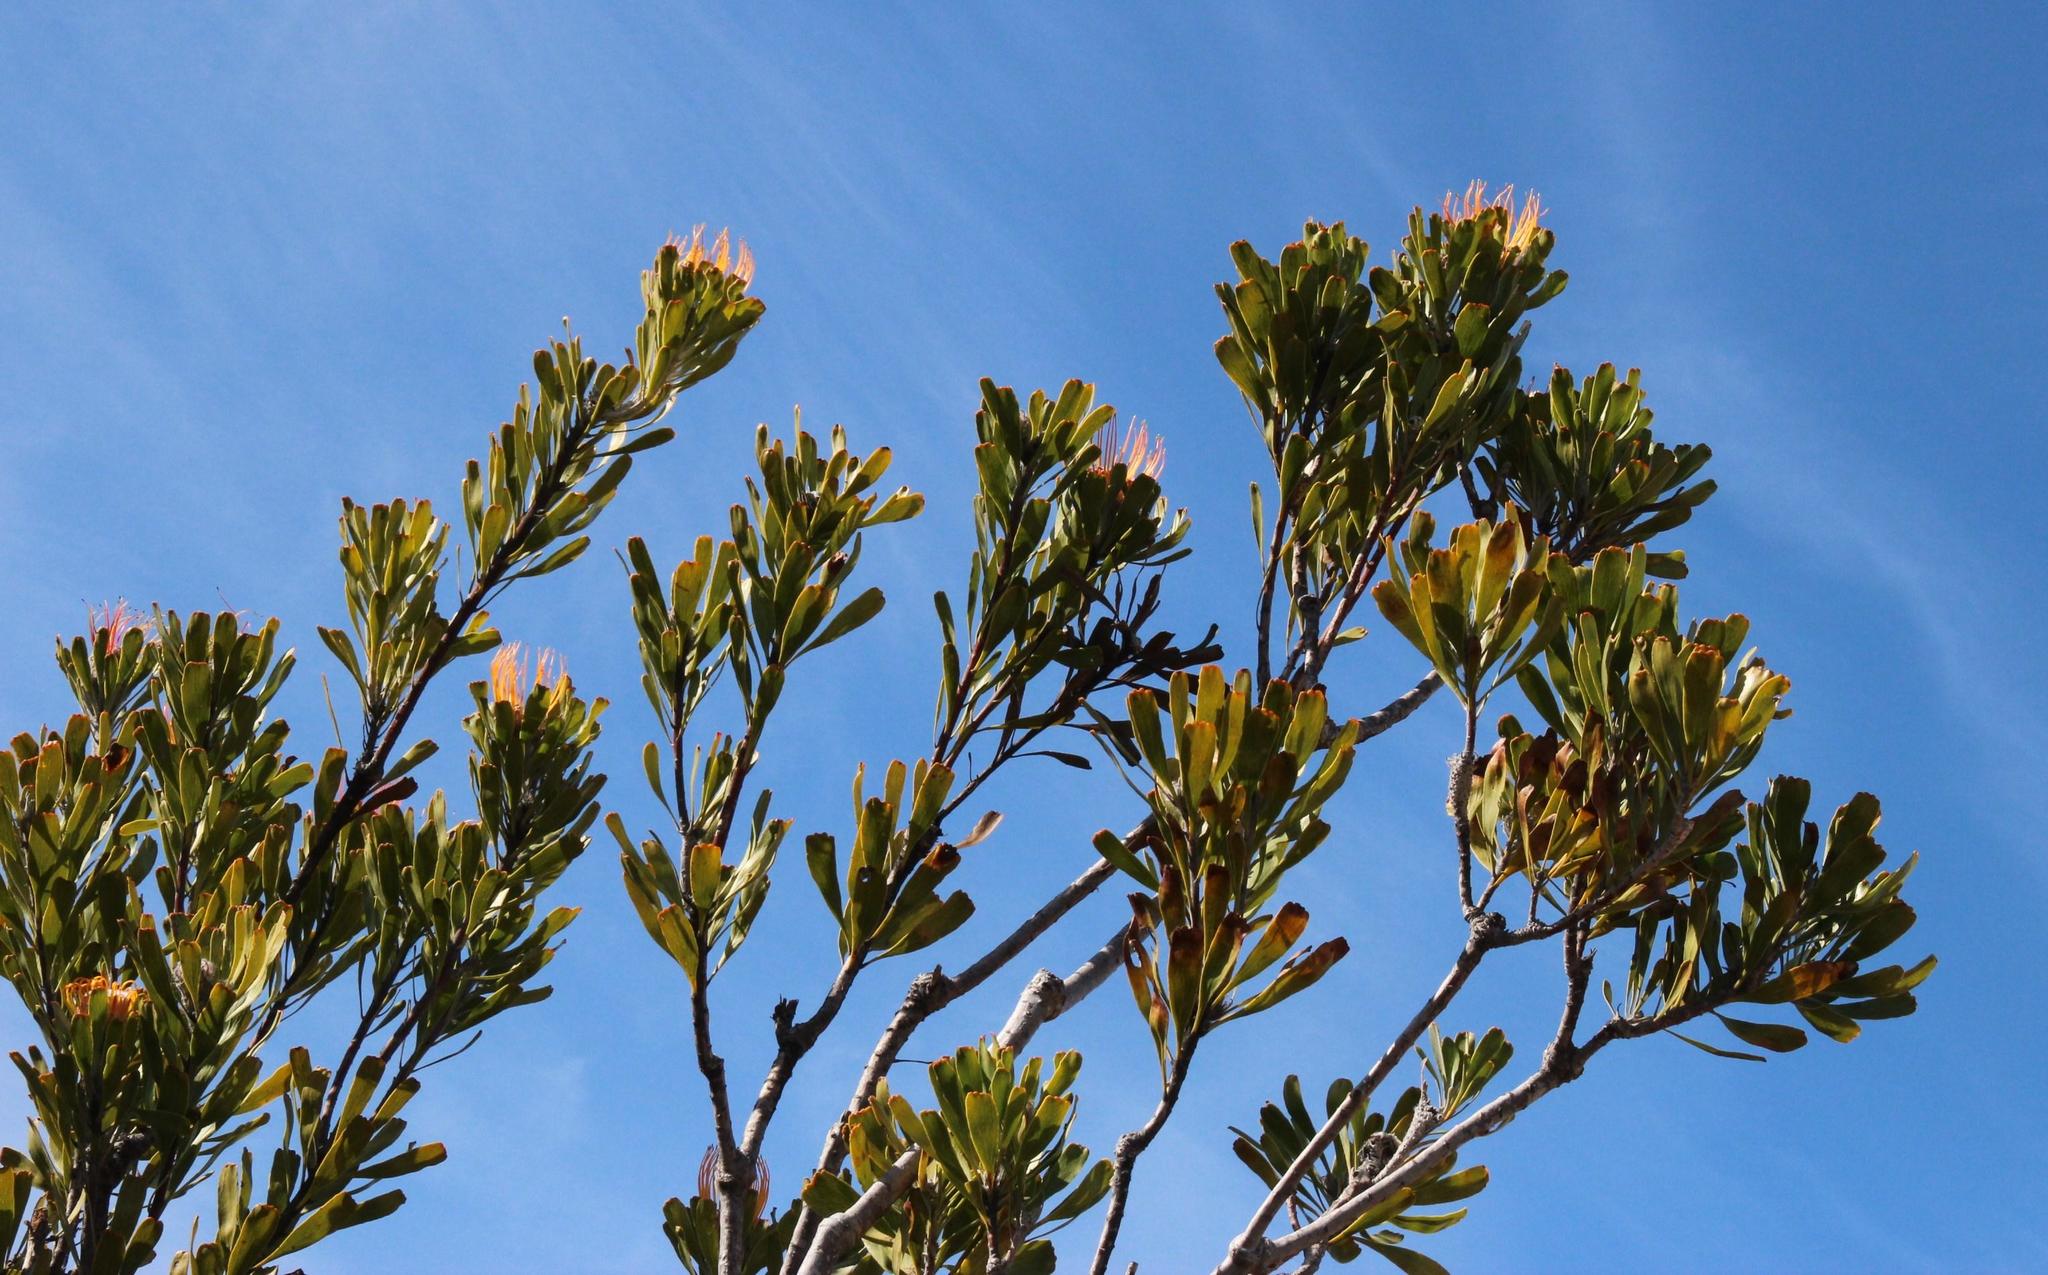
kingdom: Plantae
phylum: Tracheophyta
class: Magnoliopsida
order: Proteales
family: Proteaceae
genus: Leucospermum
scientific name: Leucospermum praemorsum
